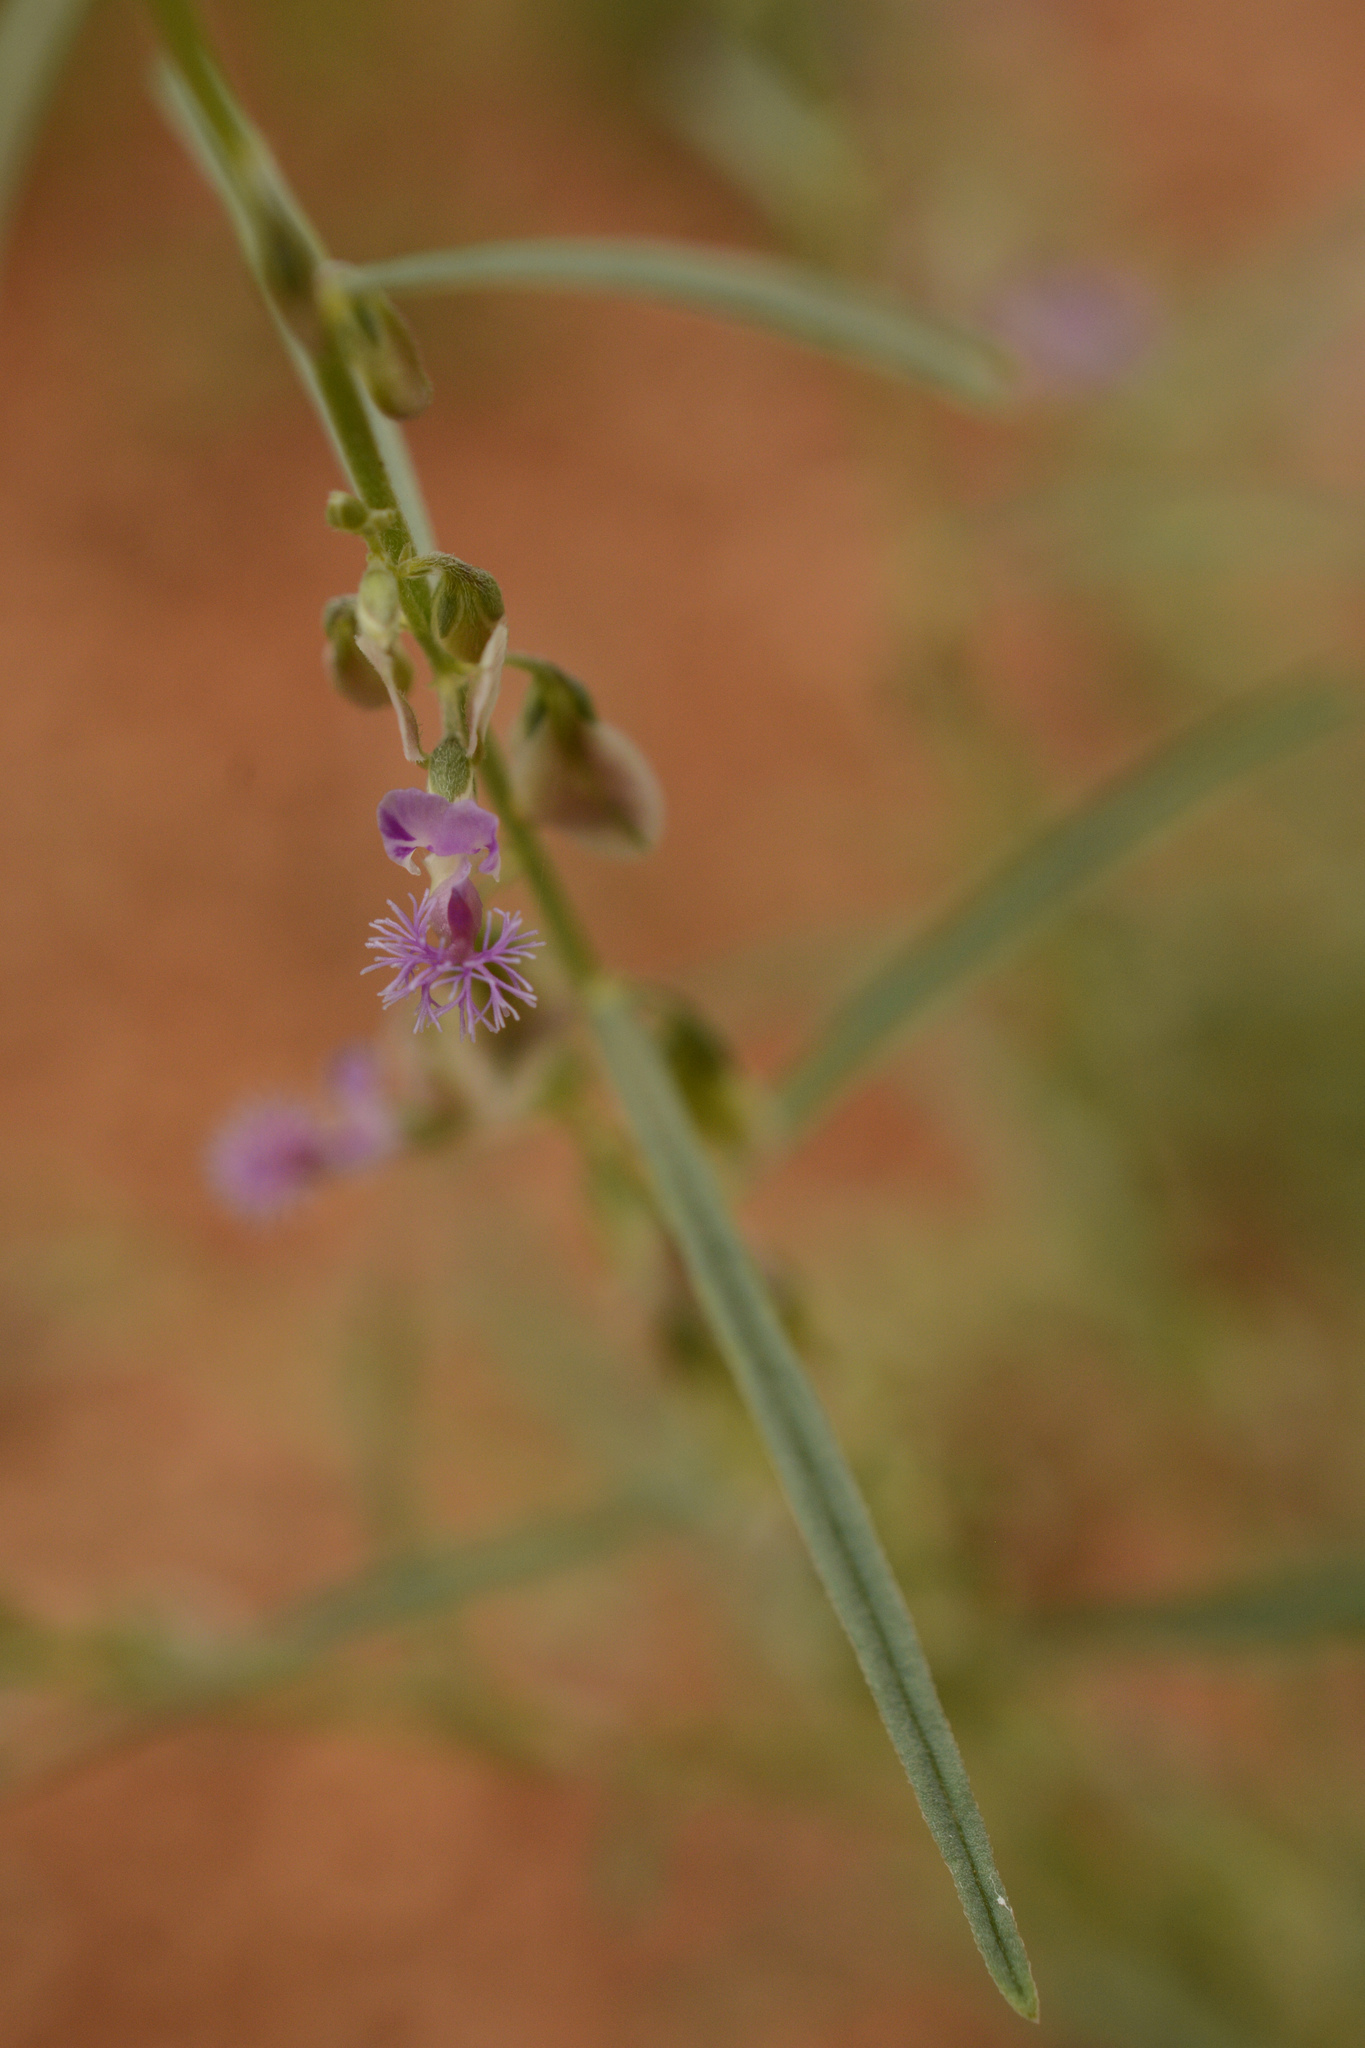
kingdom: Plantae
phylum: Tracheophyta
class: Magnoliopsida
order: Fabales
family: Polygalaceae
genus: Polygala
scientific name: Polygala erioptera
